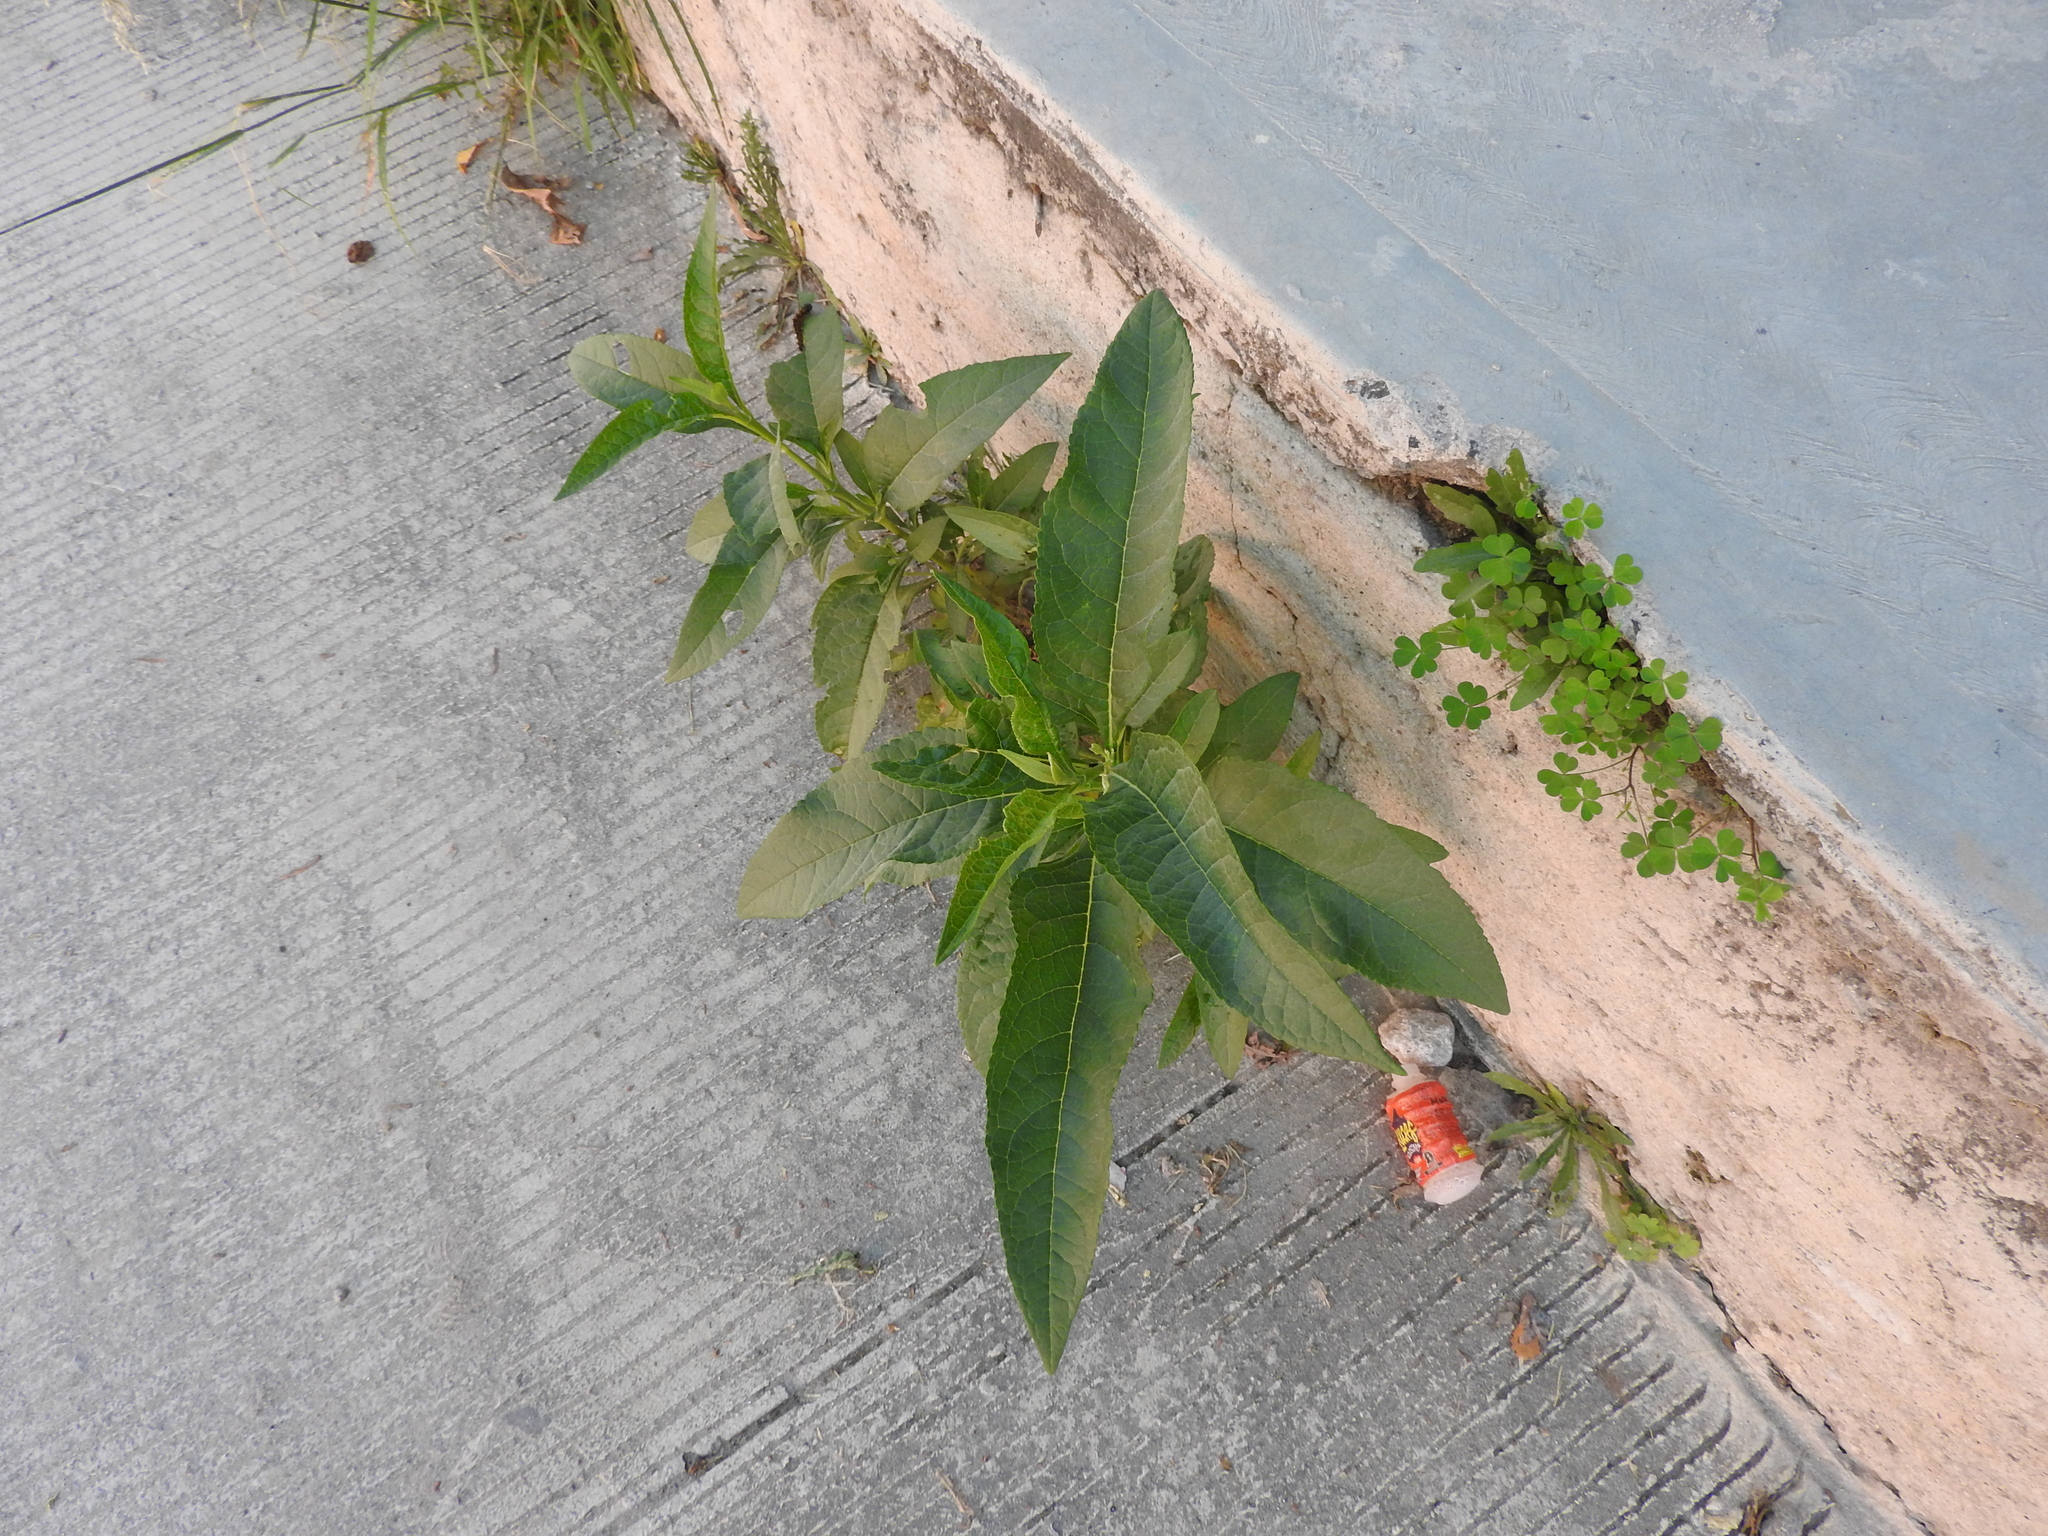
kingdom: Plantae
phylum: Tracheophyta
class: Magnoliopsida
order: Solanales
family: Solanaceae
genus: Nicotiana
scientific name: Nicotiana tabacum
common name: Tobacco
